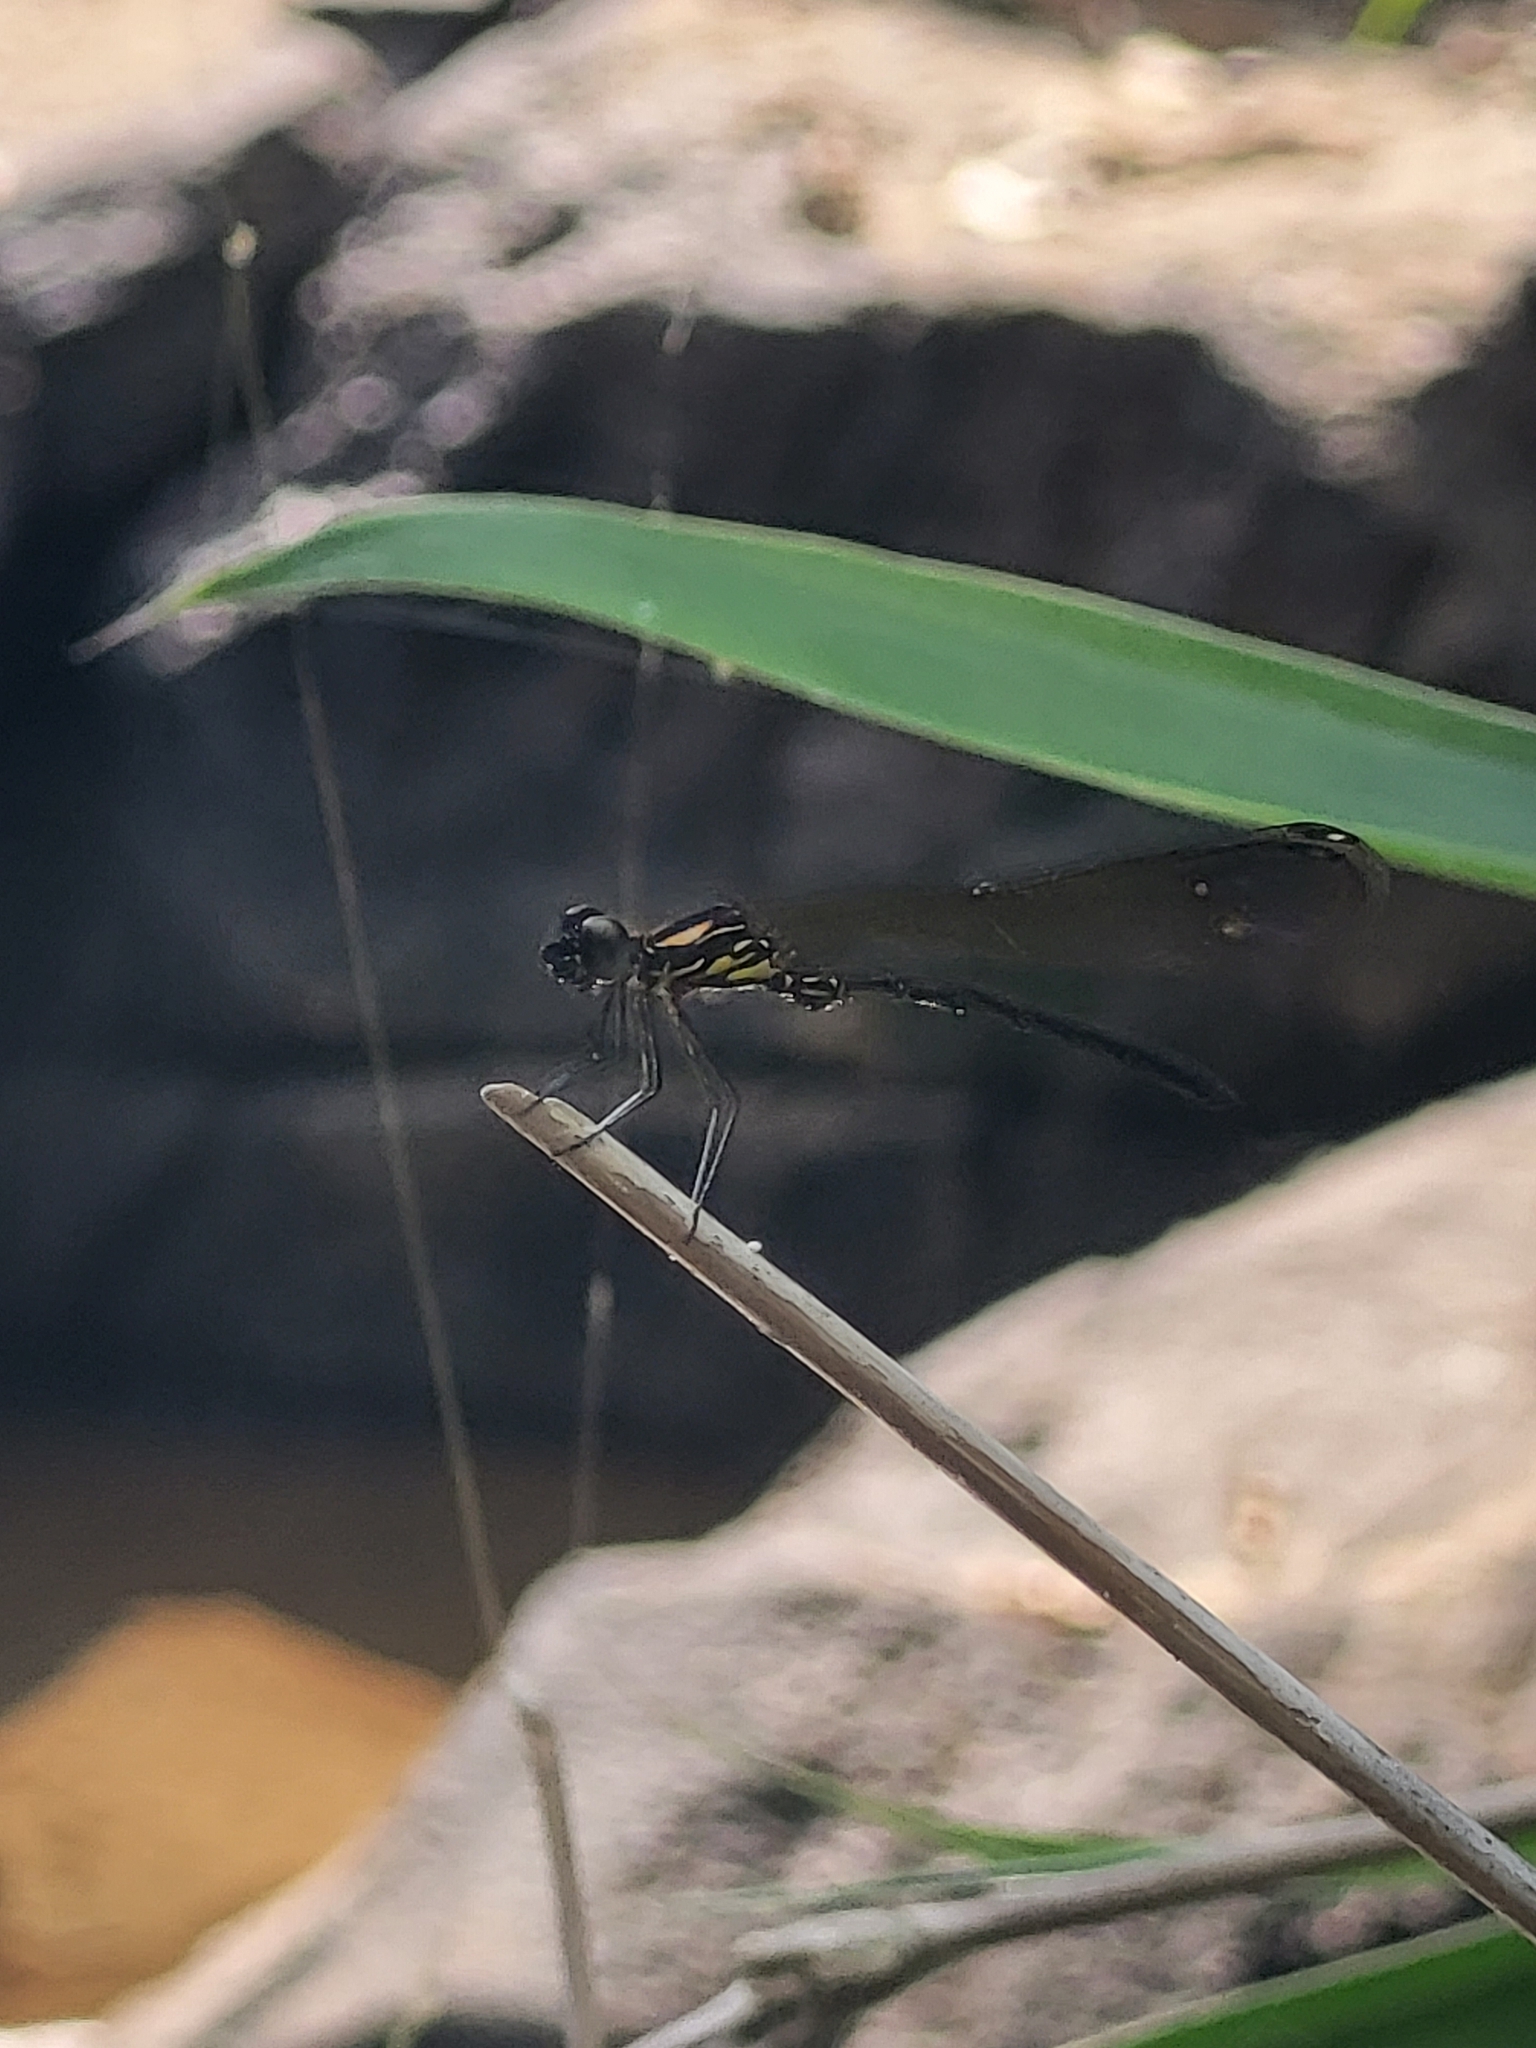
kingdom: Animalia
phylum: Arthropoda
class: Insecta
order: Odonata
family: Chlorocyphidae
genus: Heliocypha
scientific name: Heliocypha bisignata
